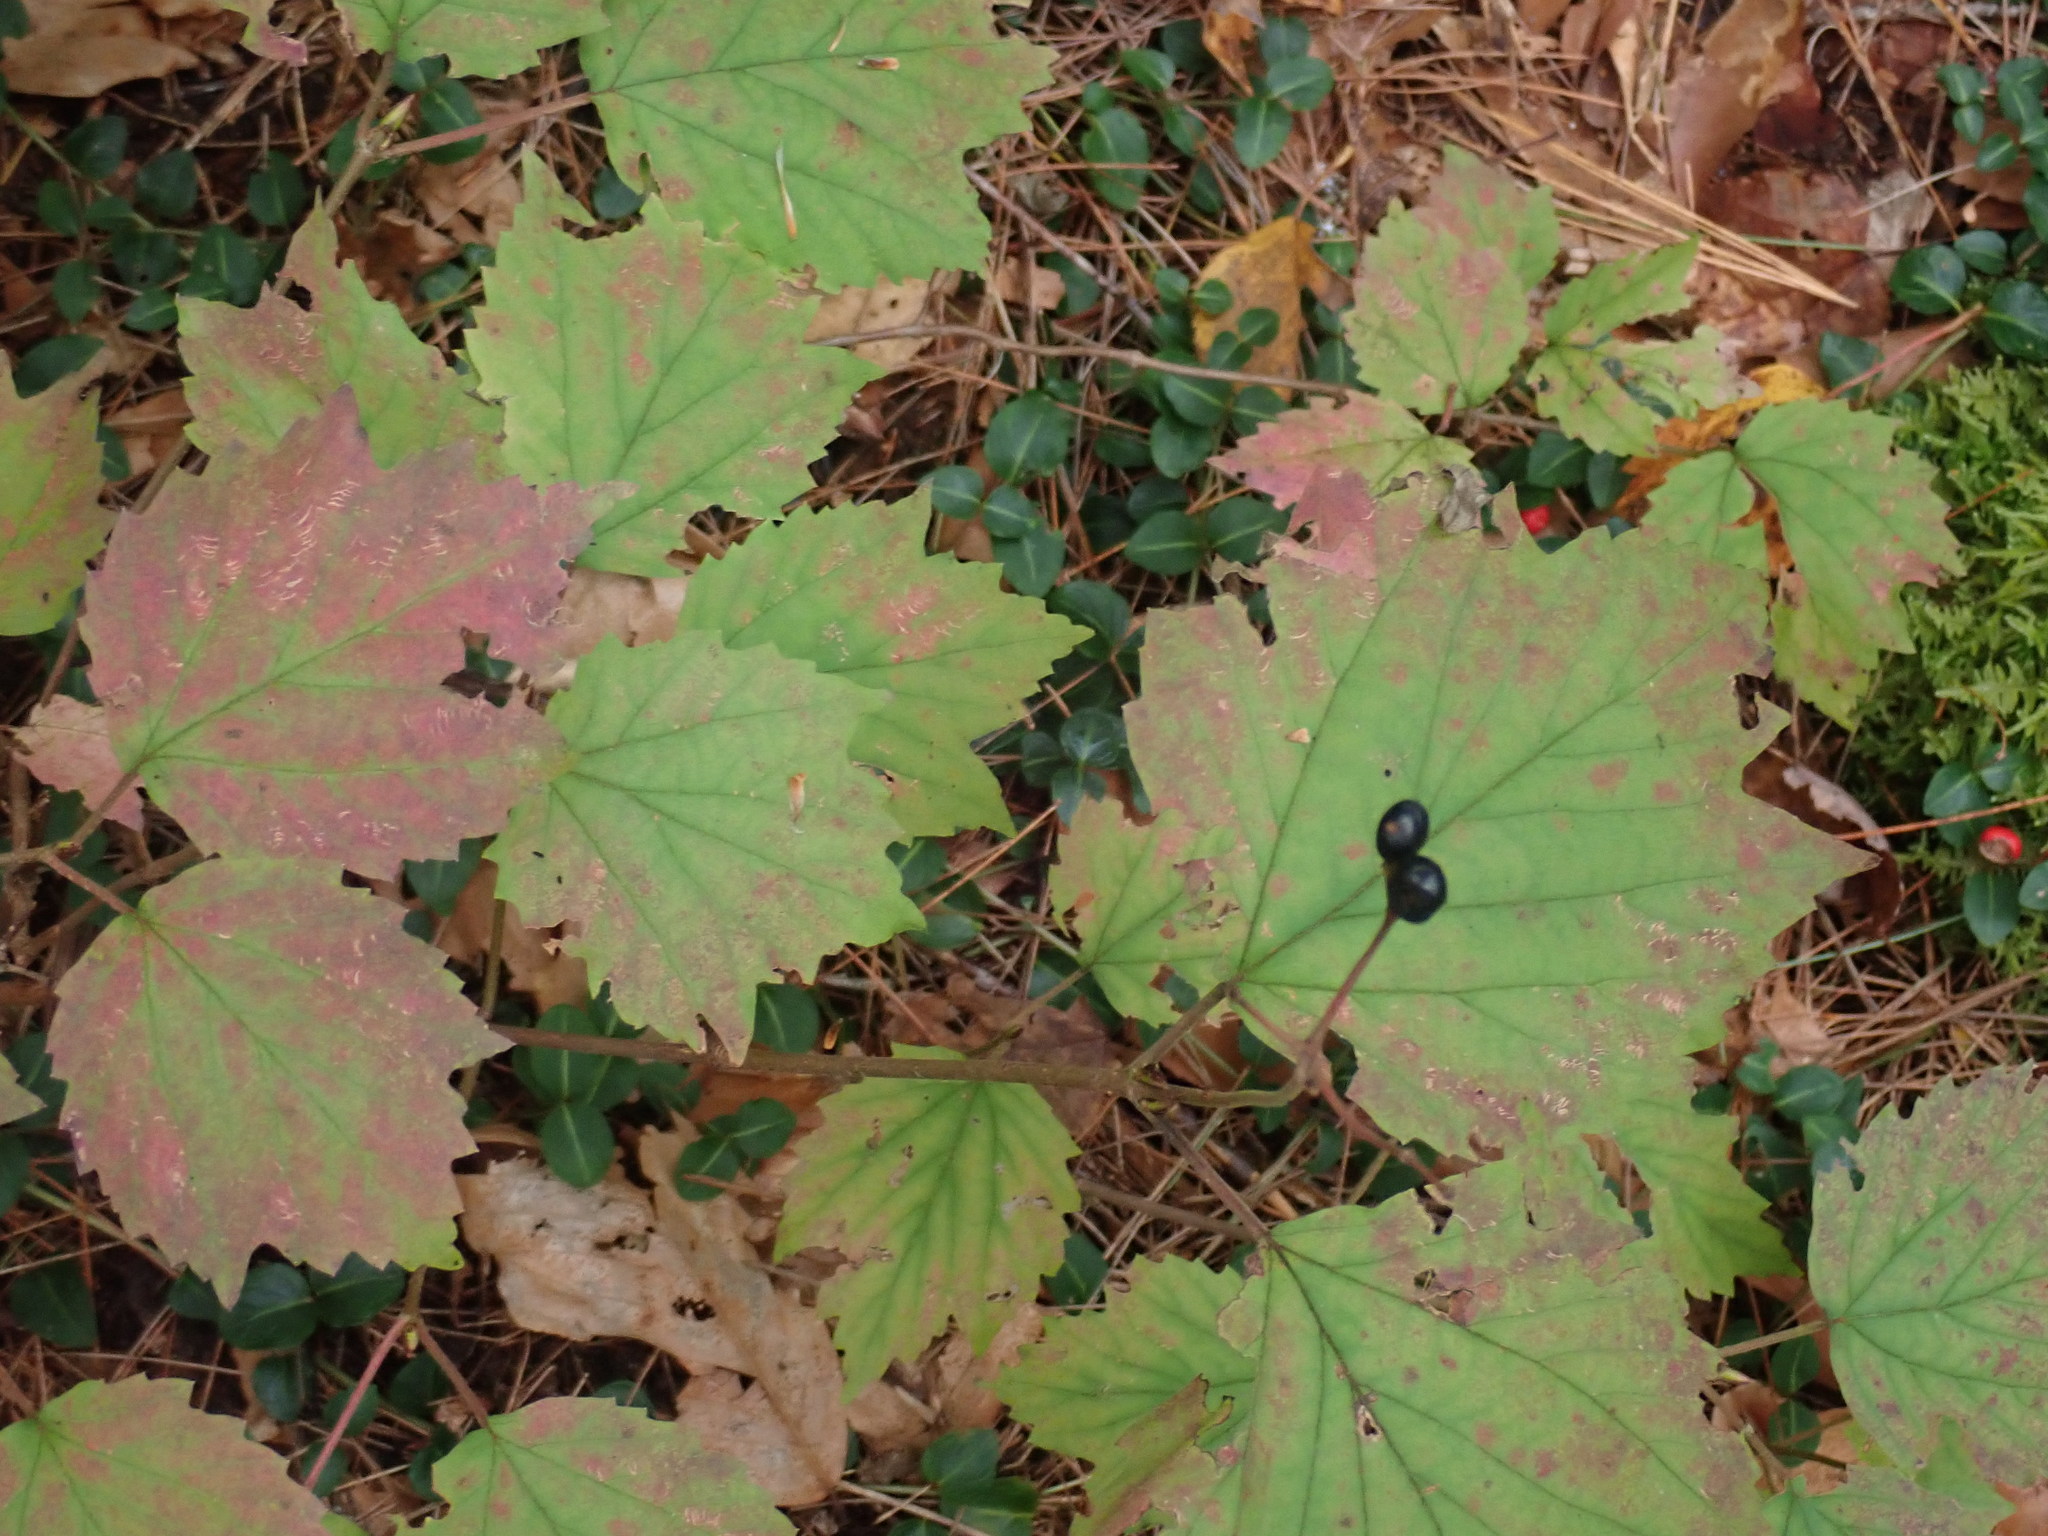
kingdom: Plantae
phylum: Tracheophyta
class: Magnoliopsida
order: Dipsacales
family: Viburnaceae
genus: Viburnum
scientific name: Viburnum acerifolium
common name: Dockmackie
